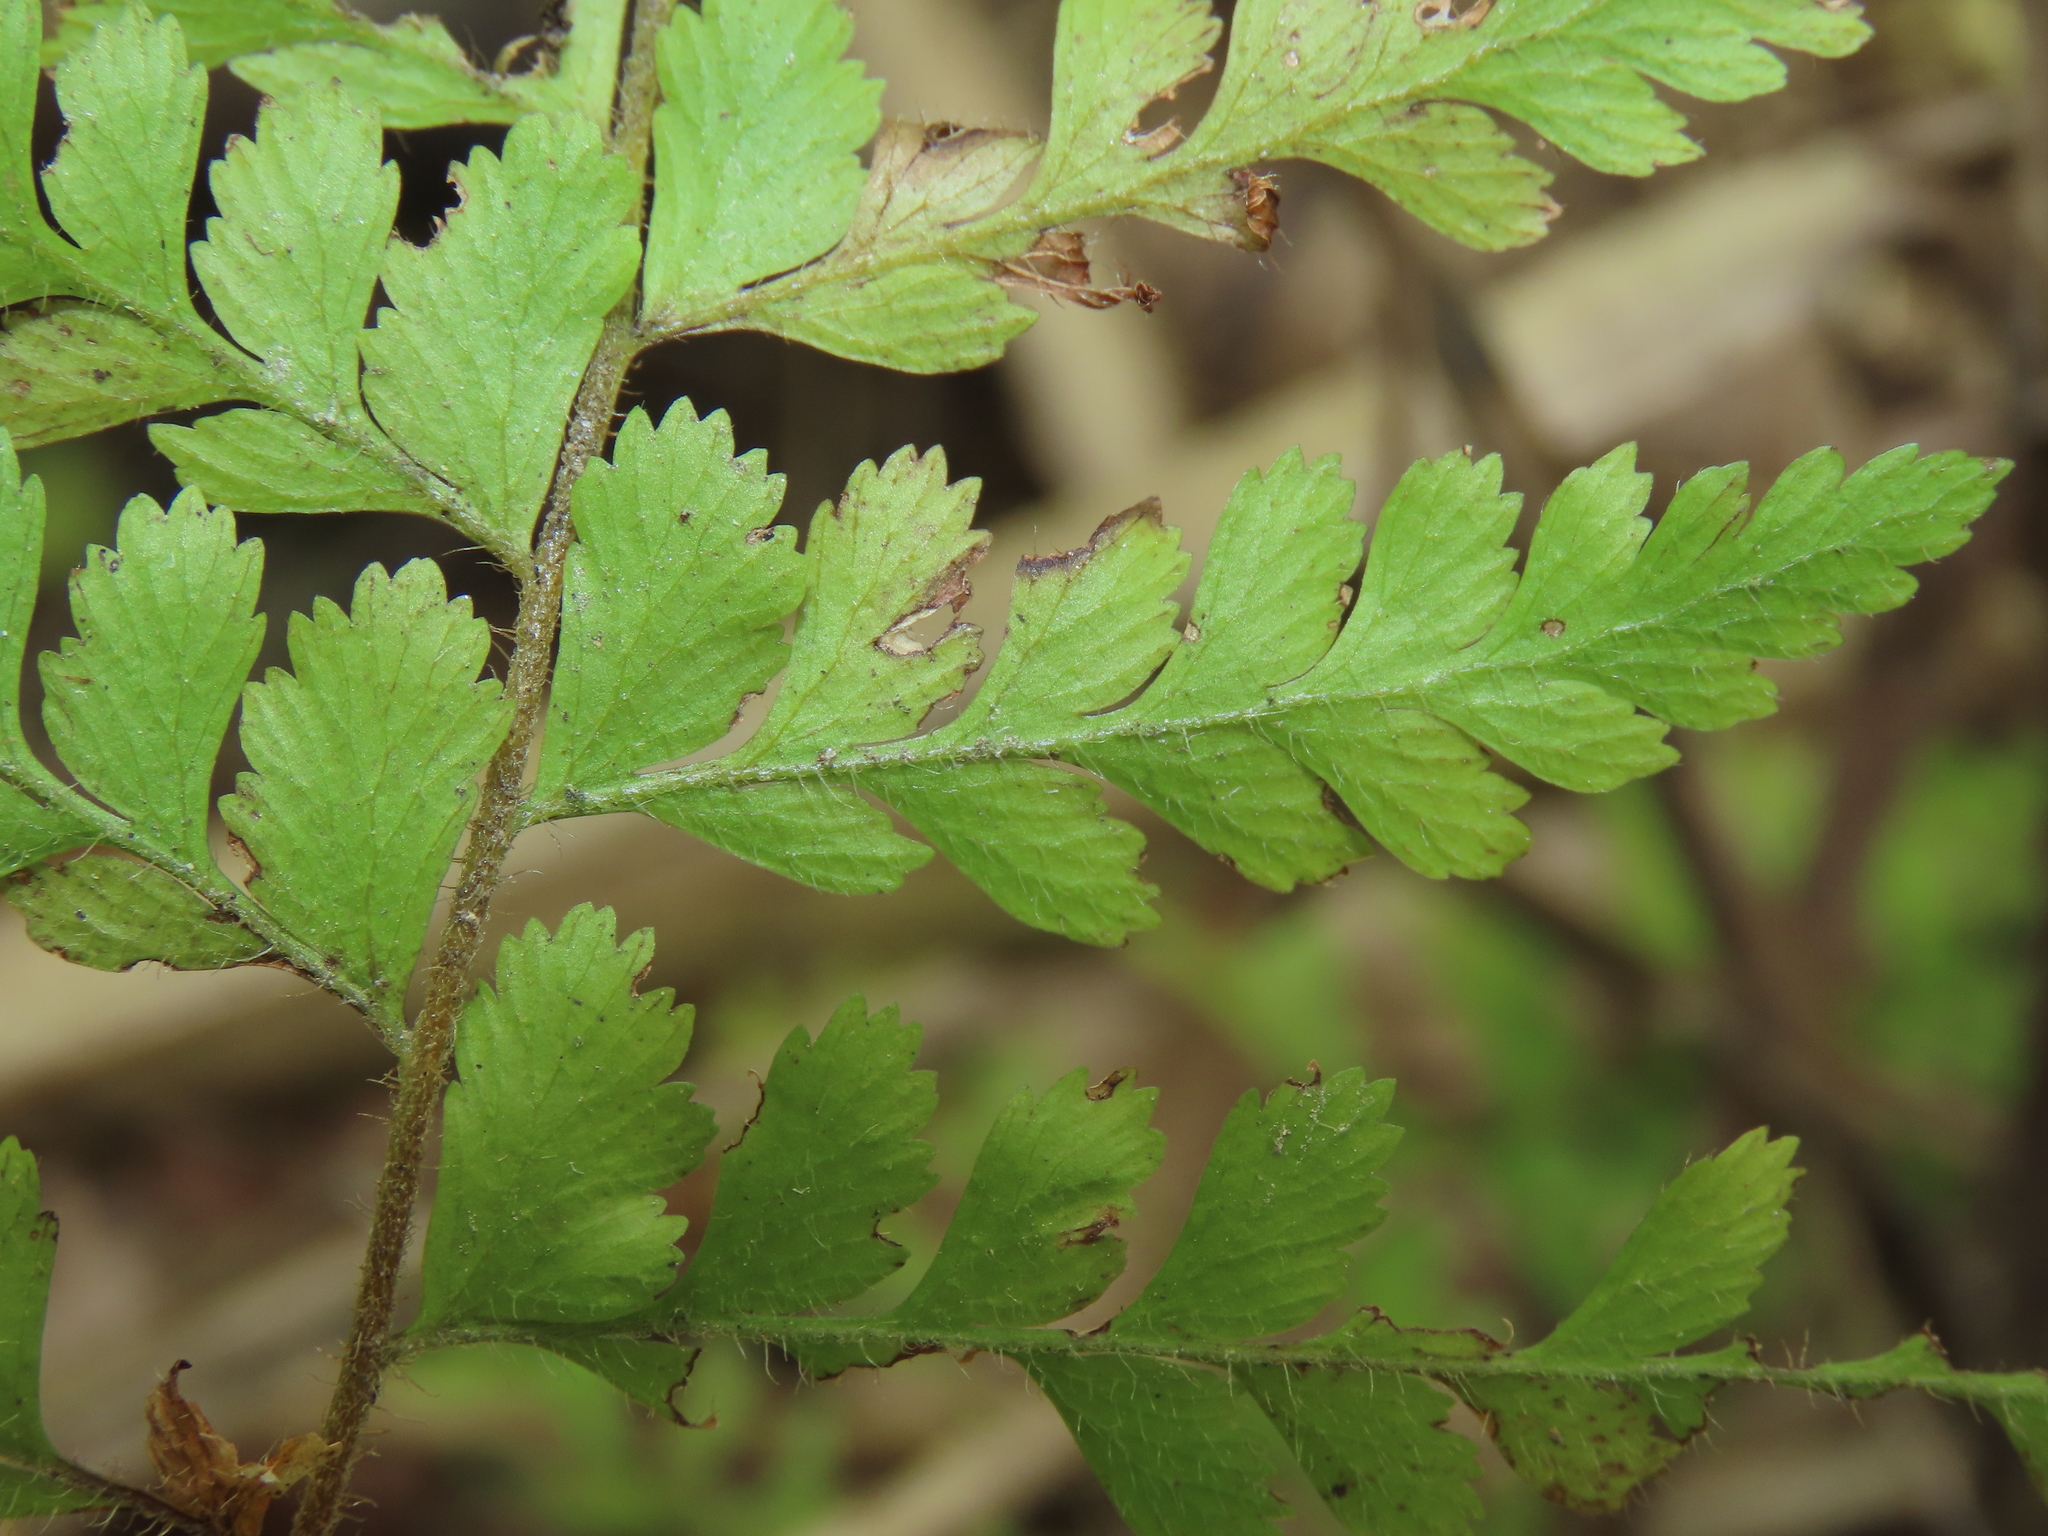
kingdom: Plantae
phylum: Tracheophyta
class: Polypodiopsida
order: Polypodiales
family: Dennstaedtiaceae
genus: Microlepia
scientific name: Microlepia strigosa
